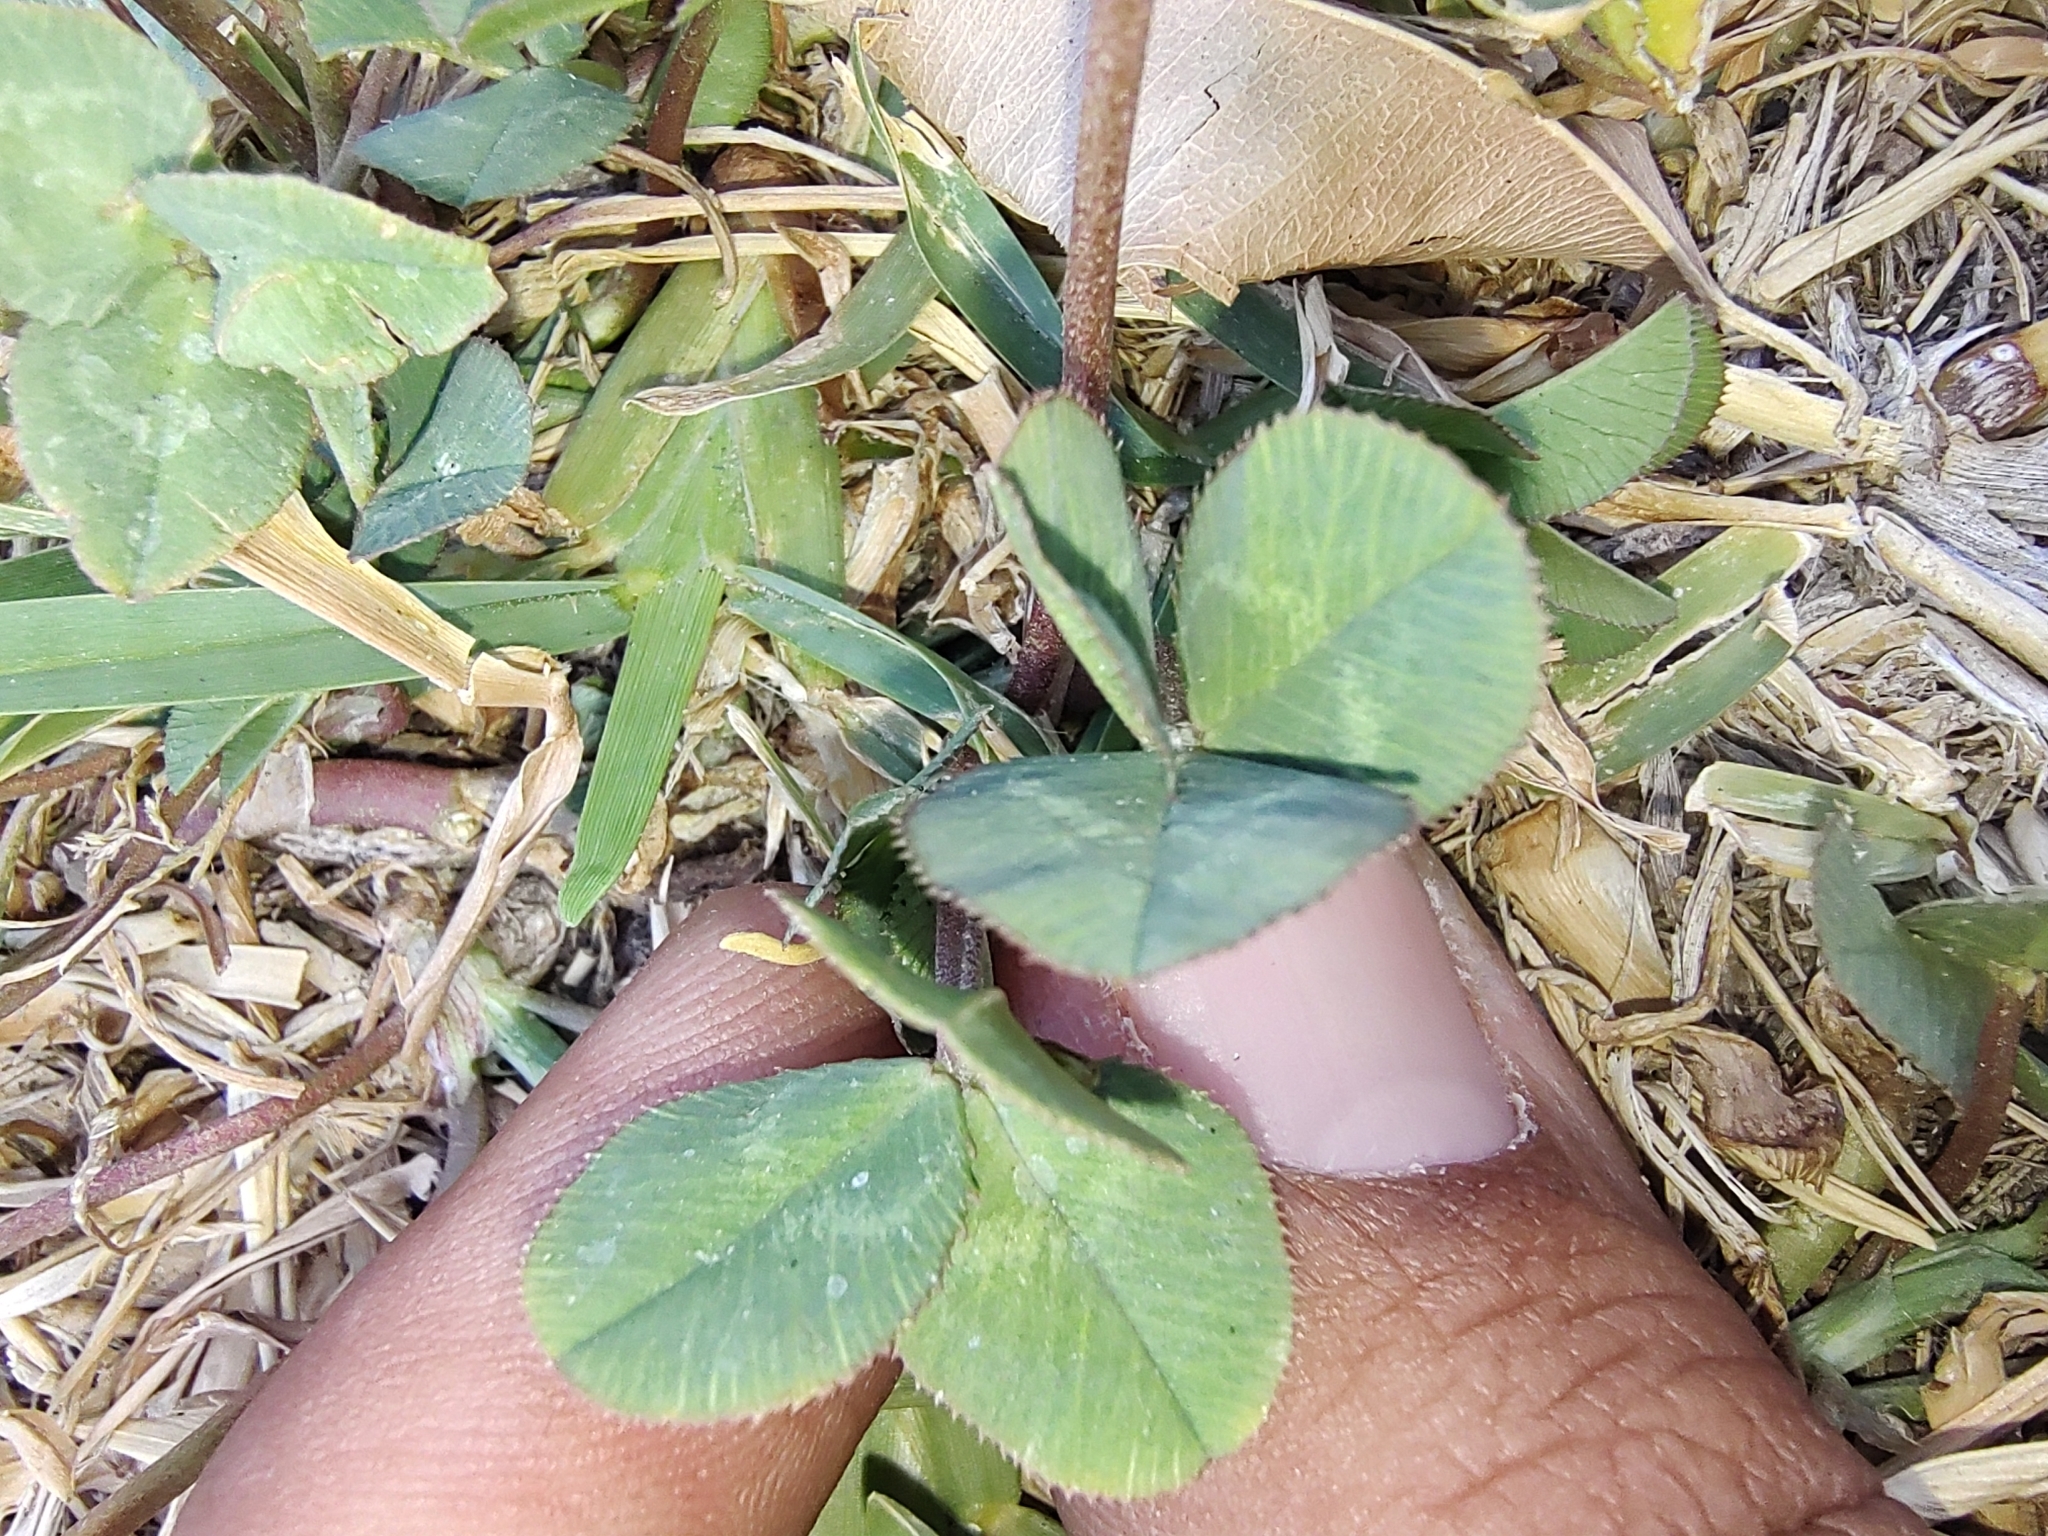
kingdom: Plantae
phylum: Tracheophyta
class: Magnoliopsida
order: Fabales
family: Fabaceae
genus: Trifolium
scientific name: Trifolium repens
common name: White clover
